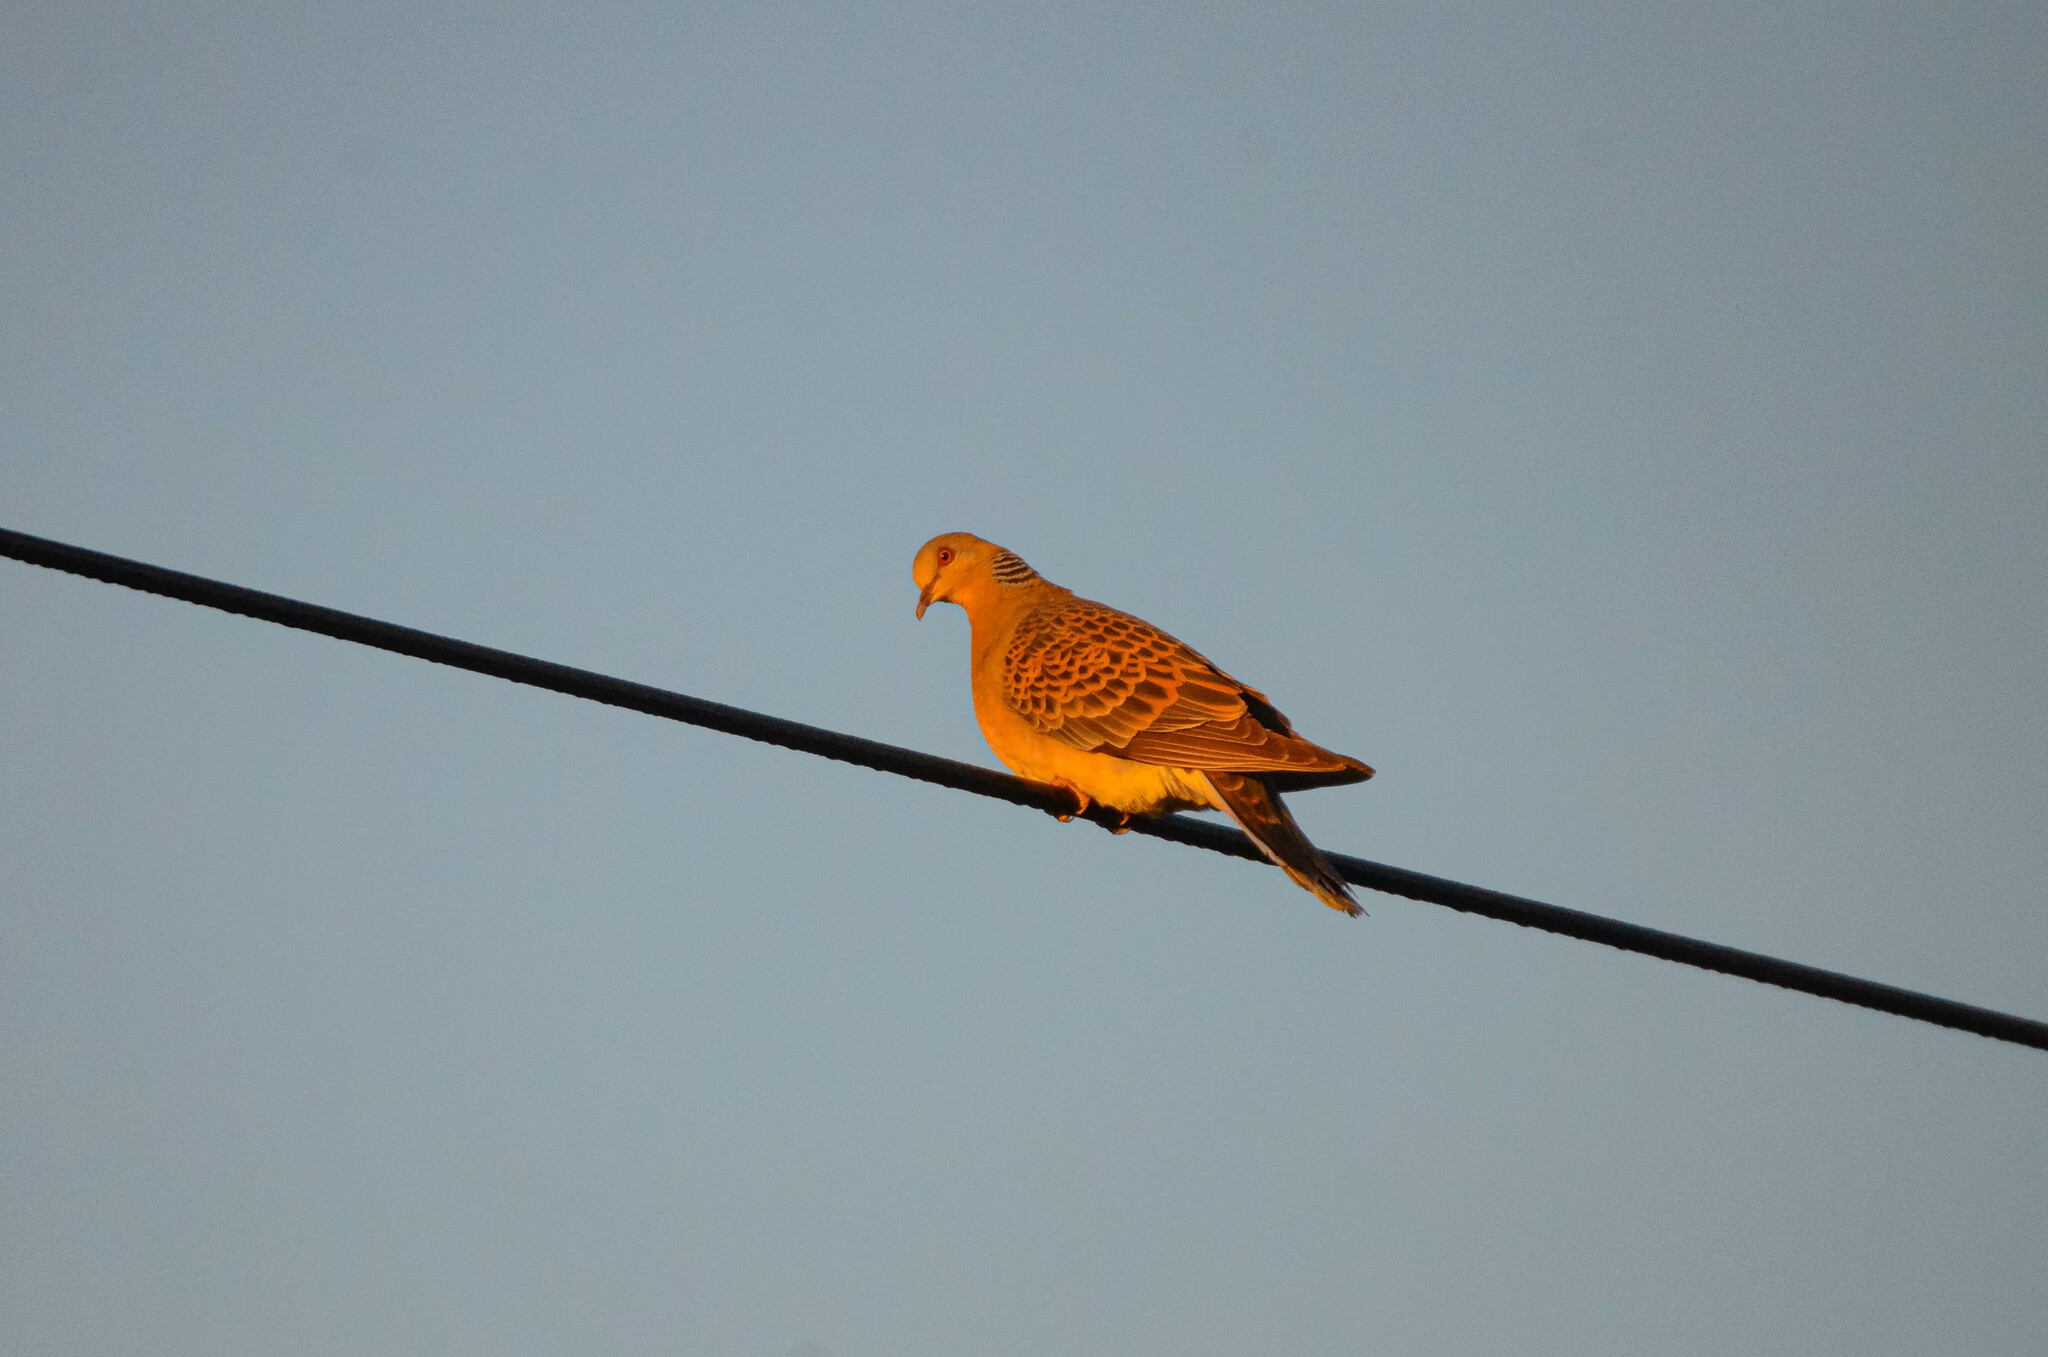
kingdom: Animalia
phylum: Chordata
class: Aves
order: Columbiformes
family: Columbidae
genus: Streptopelia
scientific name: Streptopelia orientalis
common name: Oriental turtle dove
